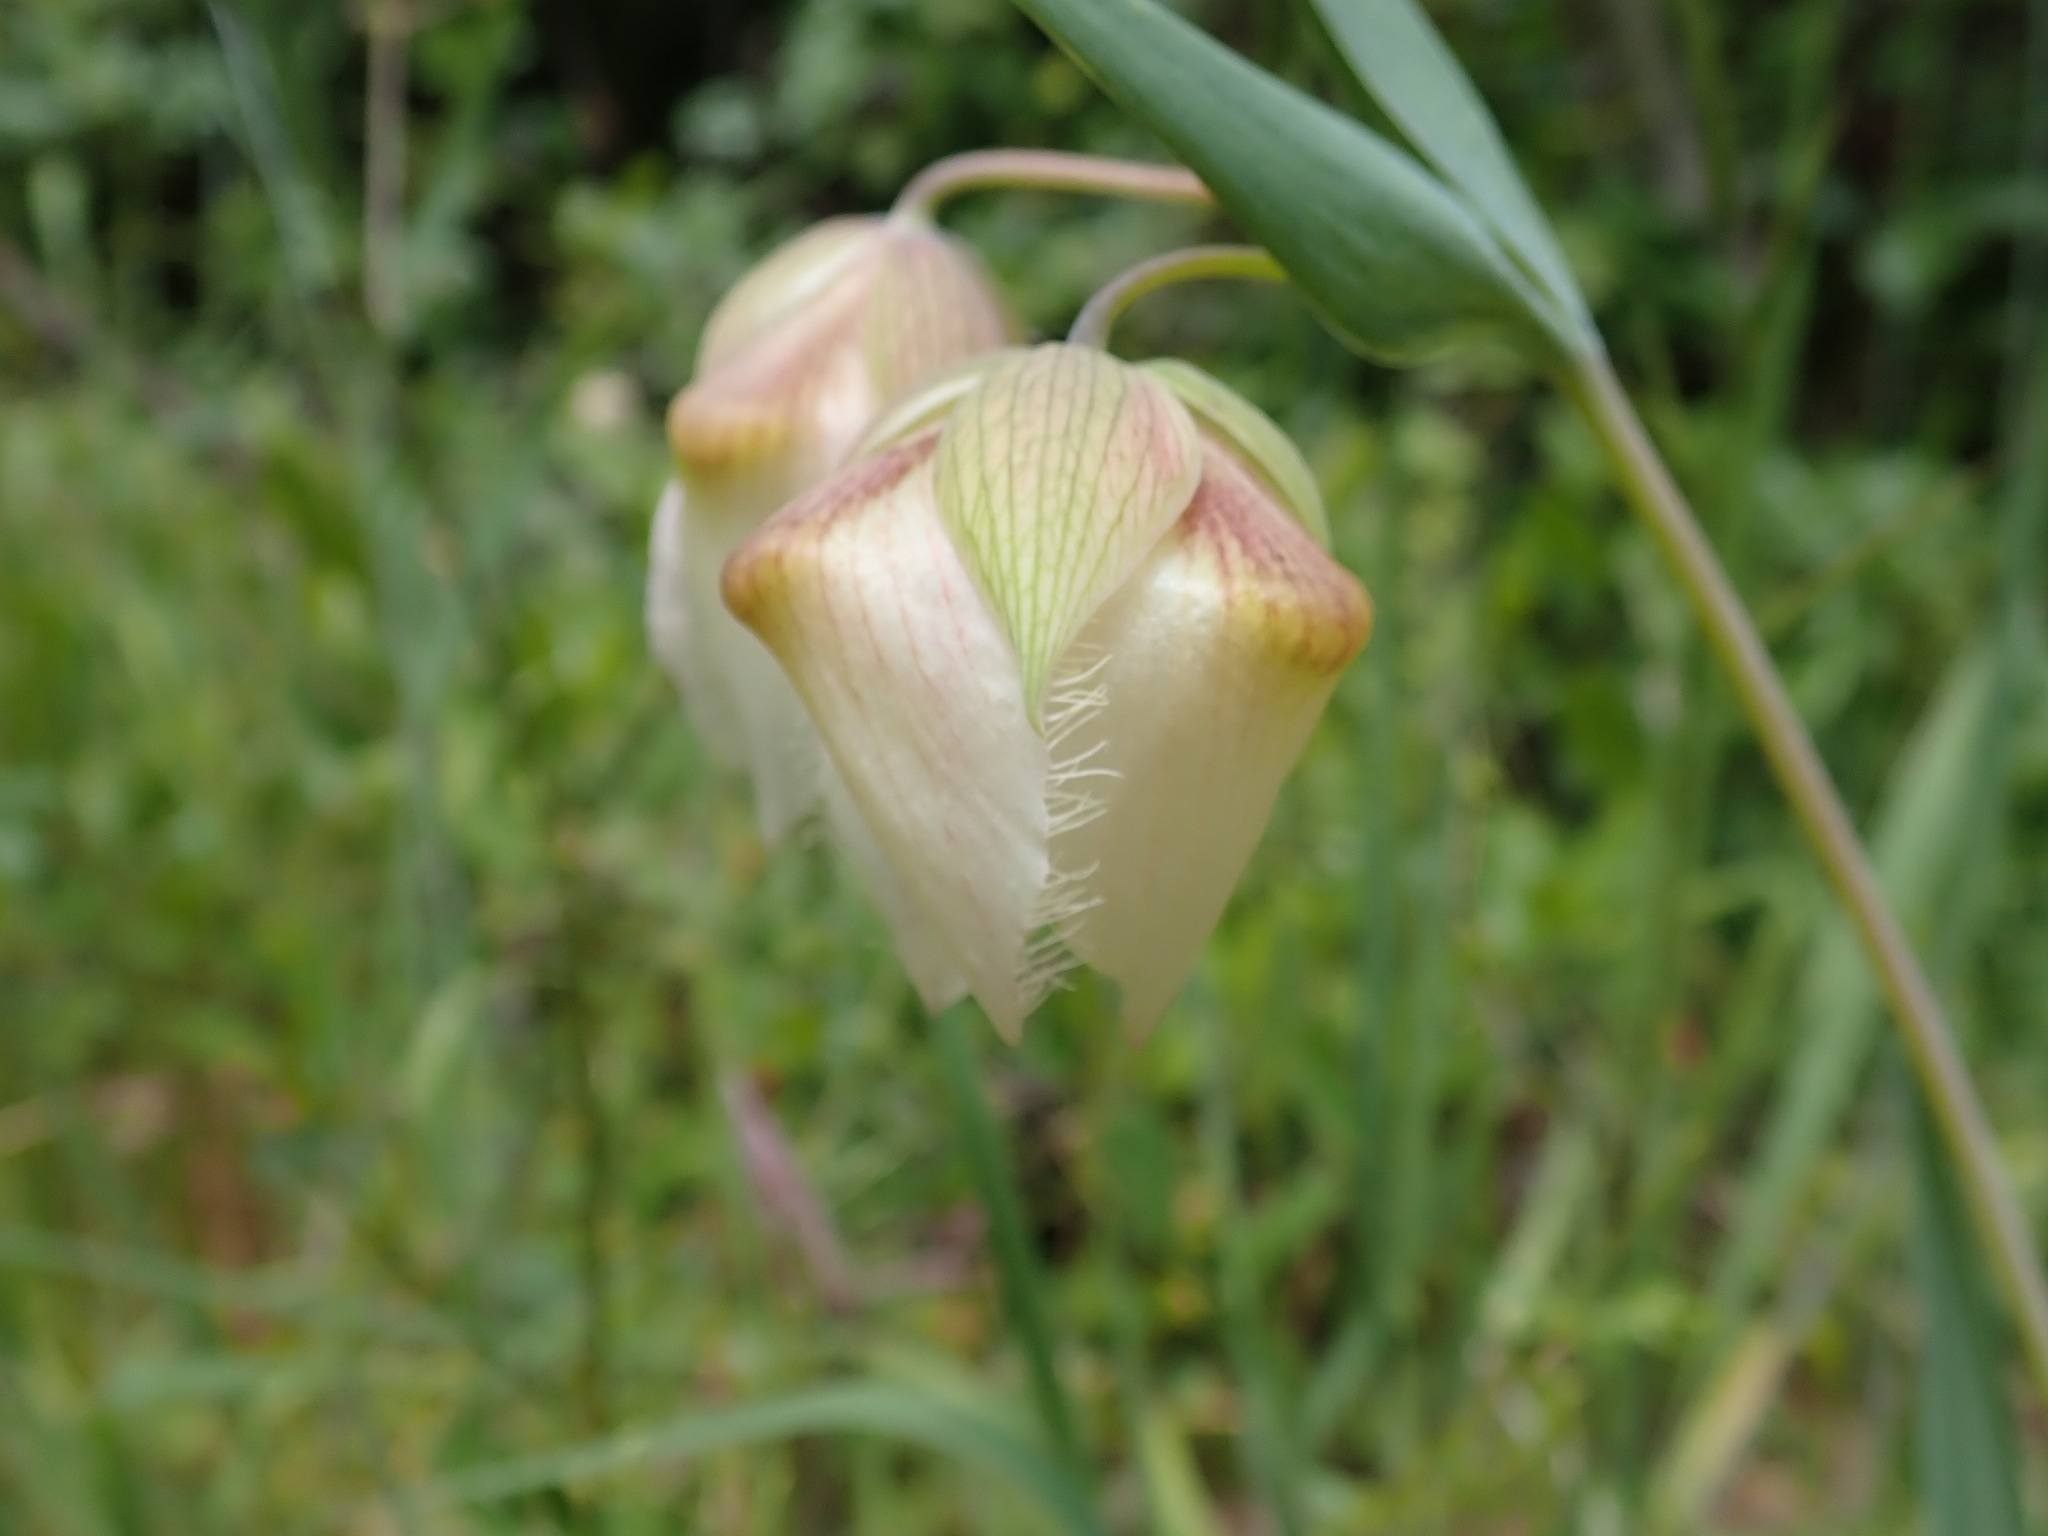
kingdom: Plantae
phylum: Tracheophyta
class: Liliopsida
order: Liliales
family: Liliaceae
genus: Calochortus
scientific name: Calochortus albus
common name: Fairy-lantern
